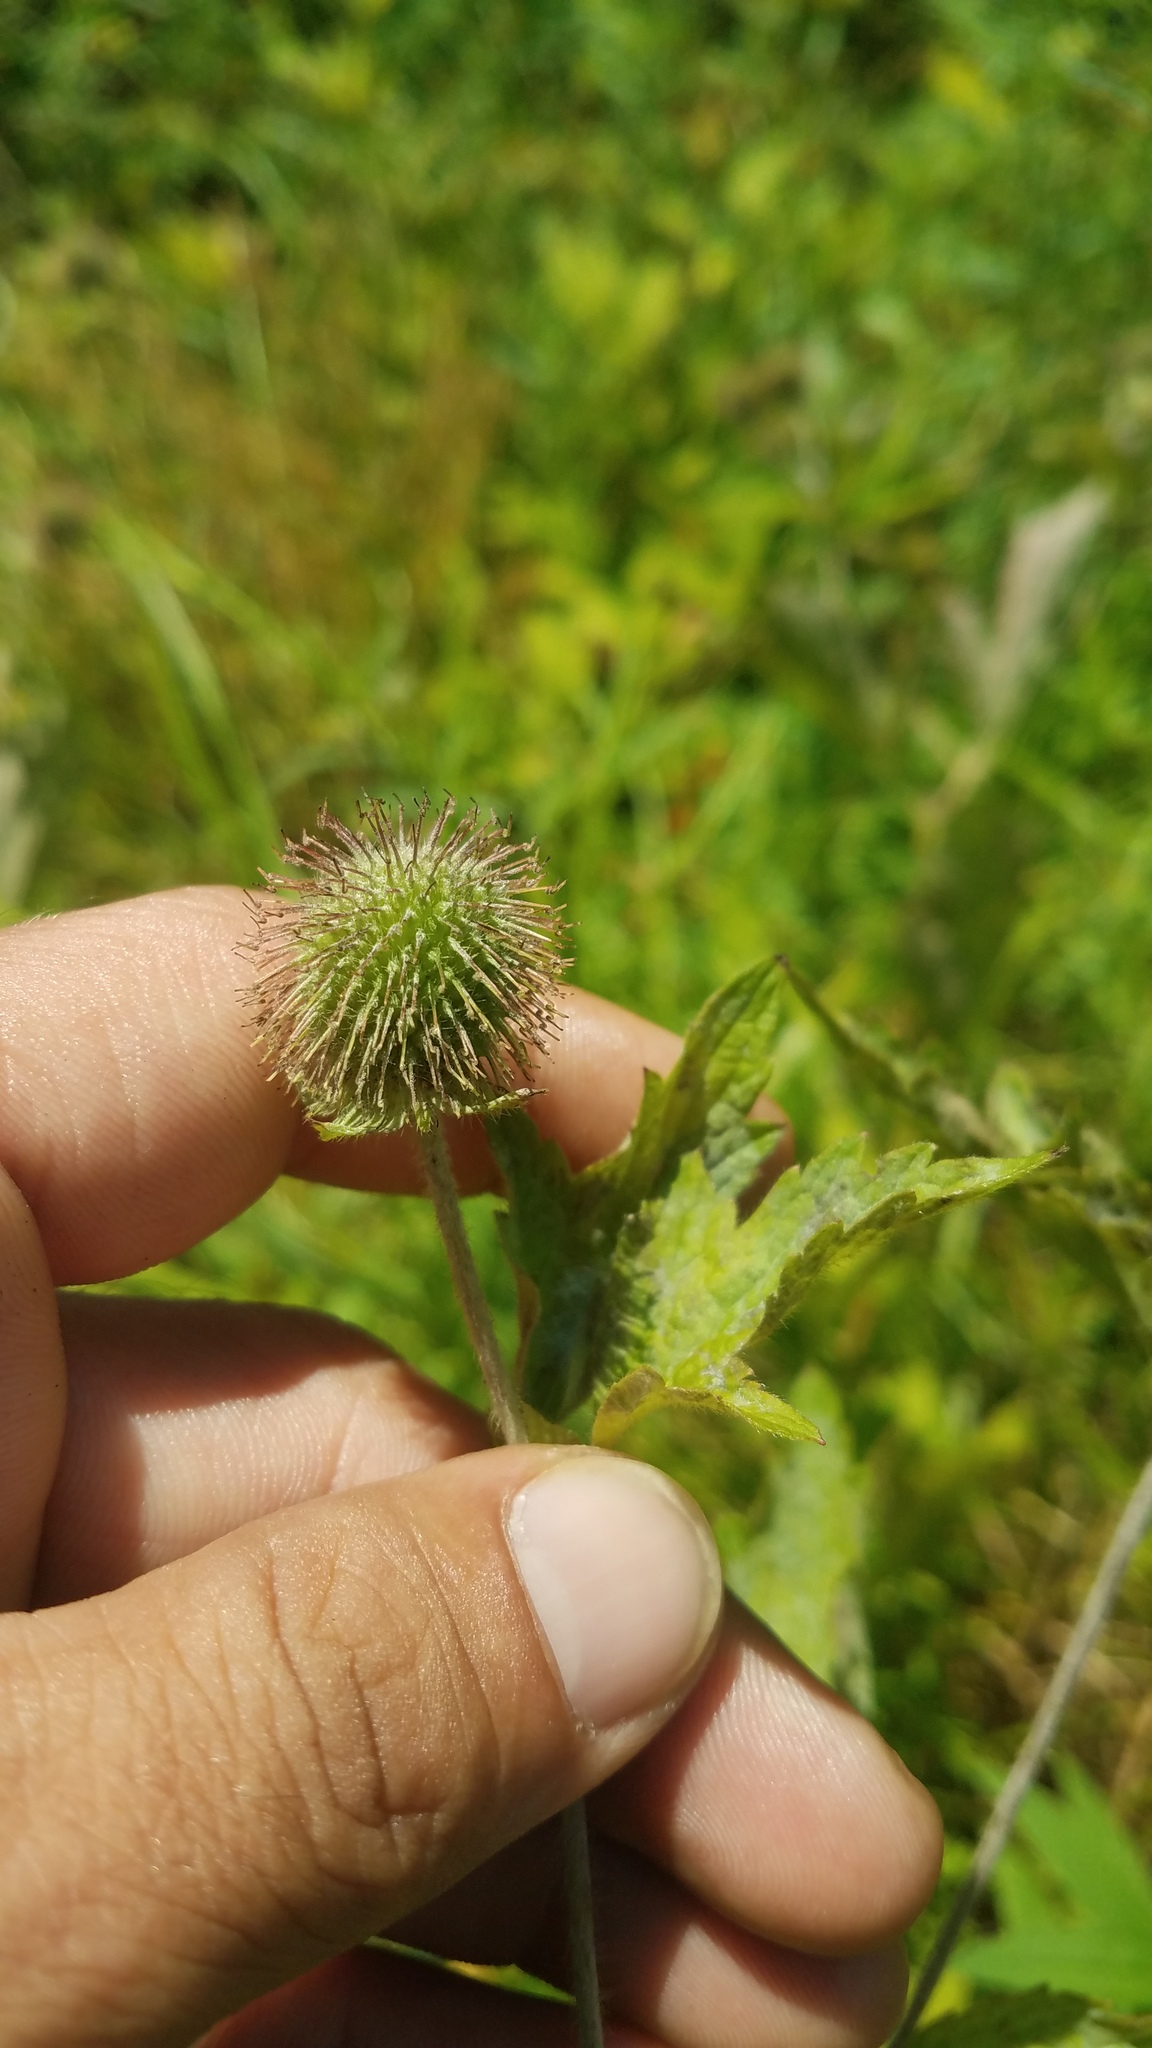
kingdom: Plantae
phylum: Tracheophyta
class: Magnoliopsida
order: Rosales
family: Rosaceae
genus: Geum
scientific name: Geum laciniatum
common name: Rough avens
